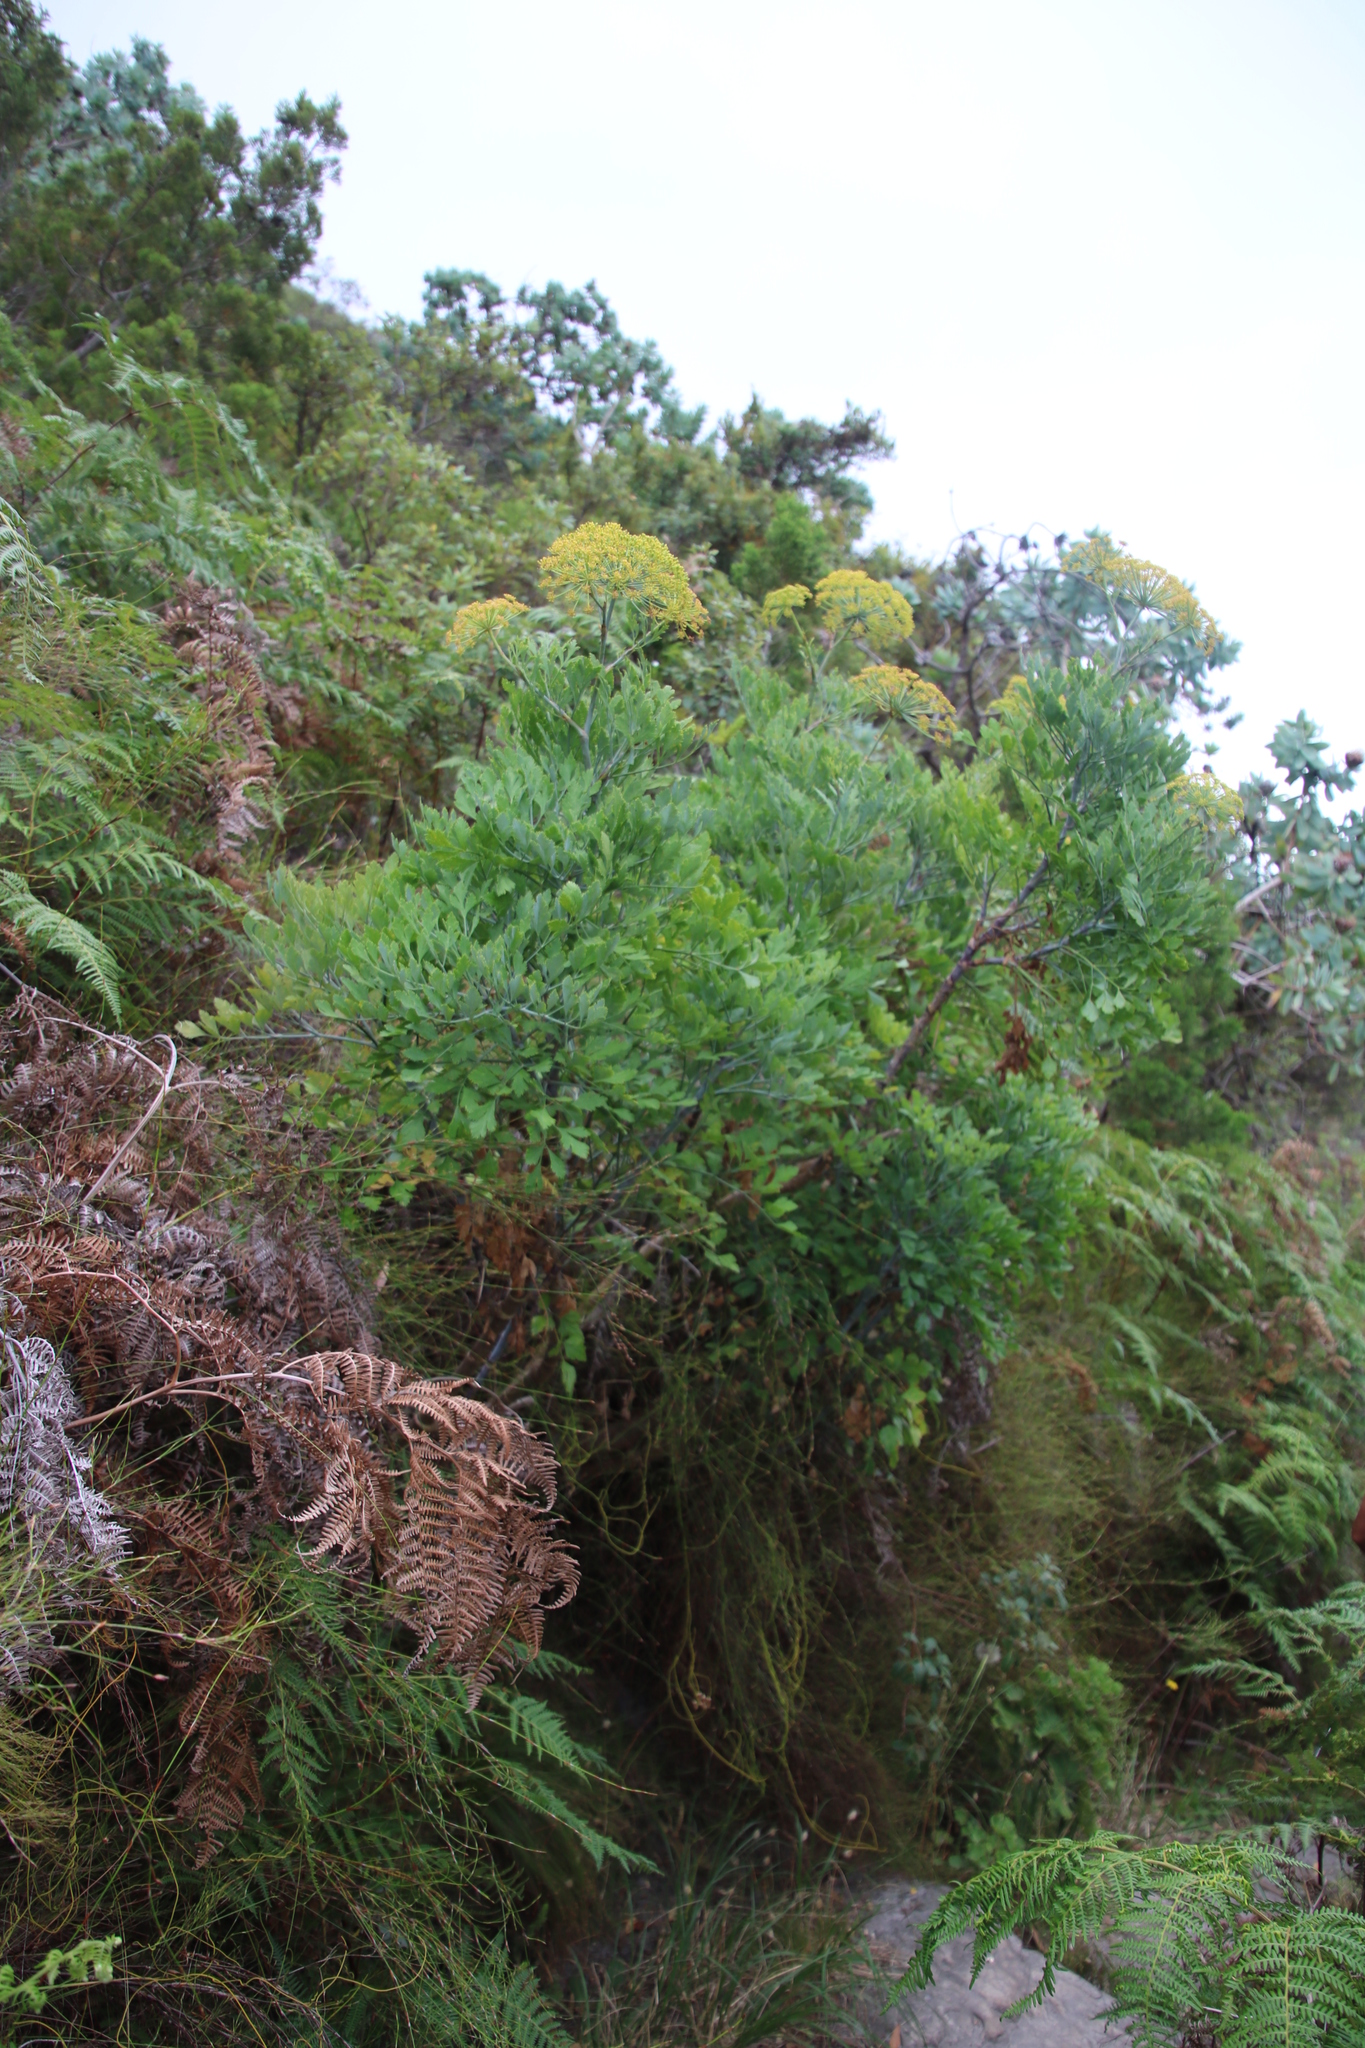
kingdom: Plantae
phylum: Tracheophyta
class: Magnoliopsida
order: Apiales
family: Apiaceae
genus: Notobubon
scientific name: Notobubon galbanum
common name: Blisterbush
